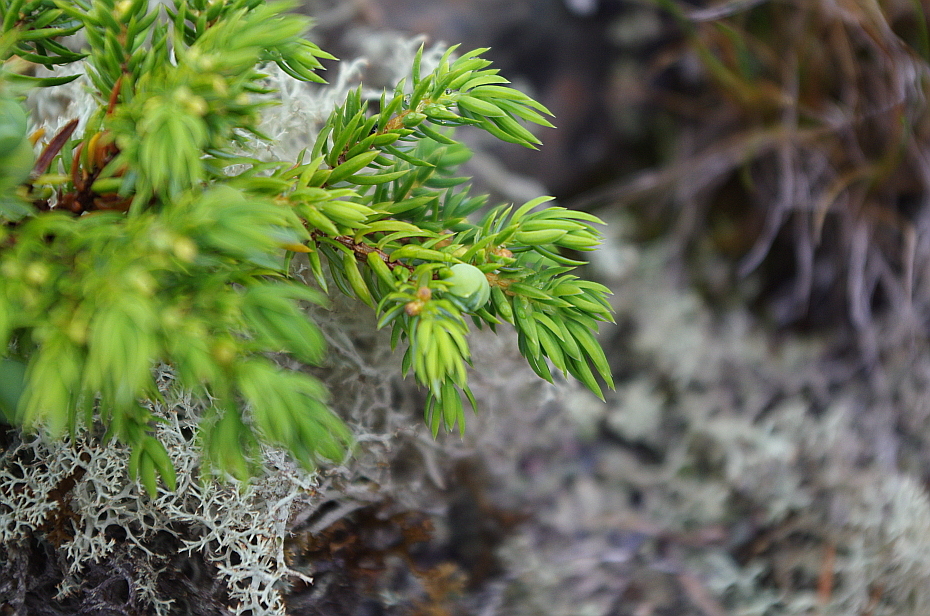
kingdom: Plantae
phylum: Tracheophyta
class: Pinopsida
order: Pinales
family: Cupressaceae
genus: Juniperus
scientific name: Juniperus communis
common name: Common juniper
